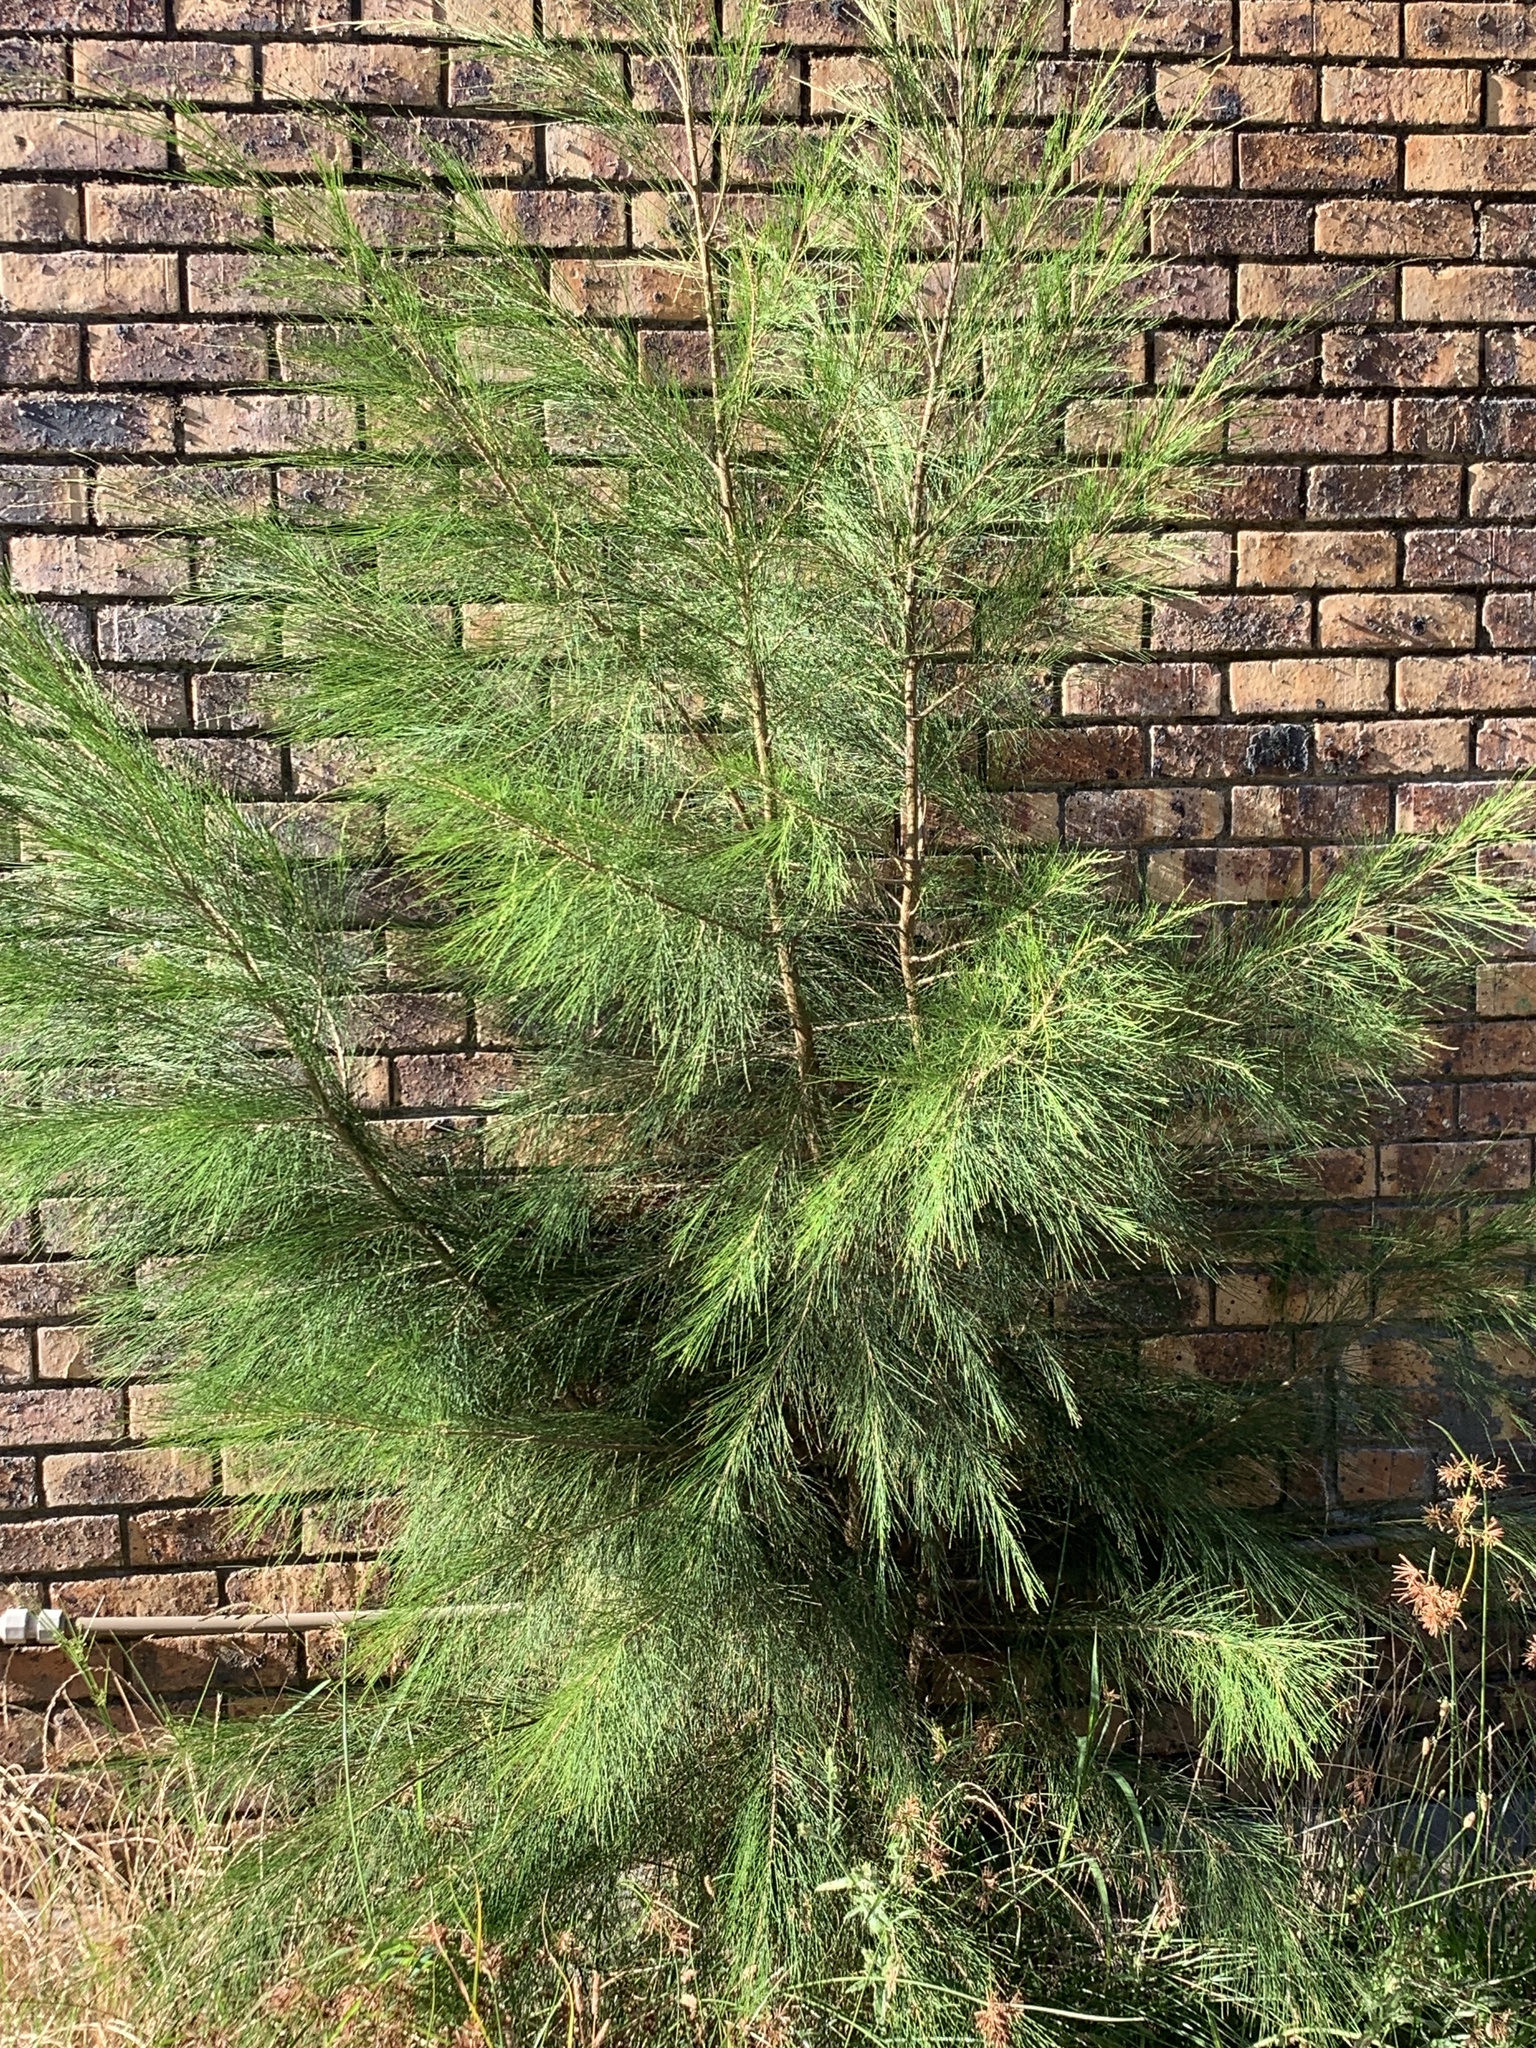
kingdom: Plantae
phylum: Tracheophyta
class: Magnoliopsida
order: Fagales
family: Casuarinaceae
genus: Casuarina
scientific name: Casuarina cunninghamiana
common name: River sheoak
